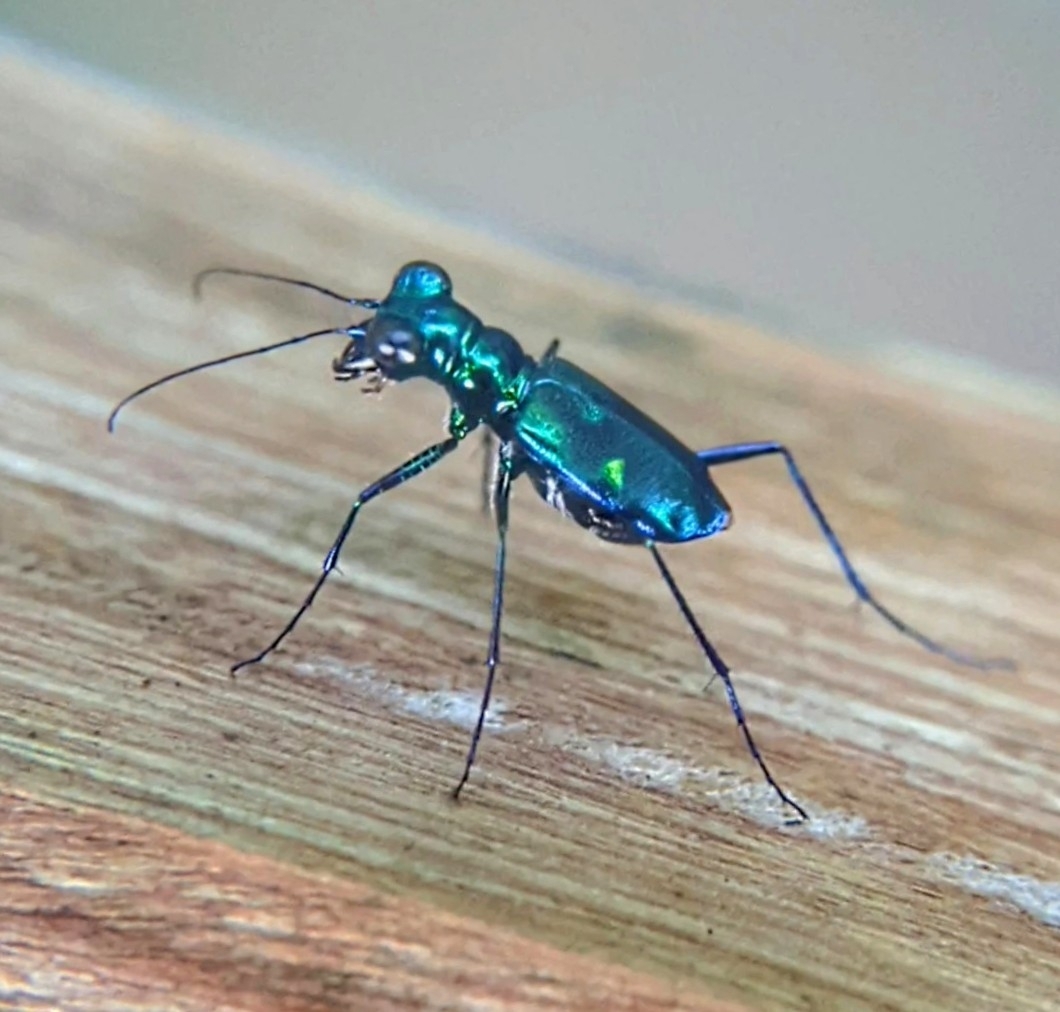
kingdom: Animalia
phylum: Arthropoda
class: Insecta
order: Coleoptera
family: Carabidae
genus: Cylindera
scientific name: Cylindera versicolor
